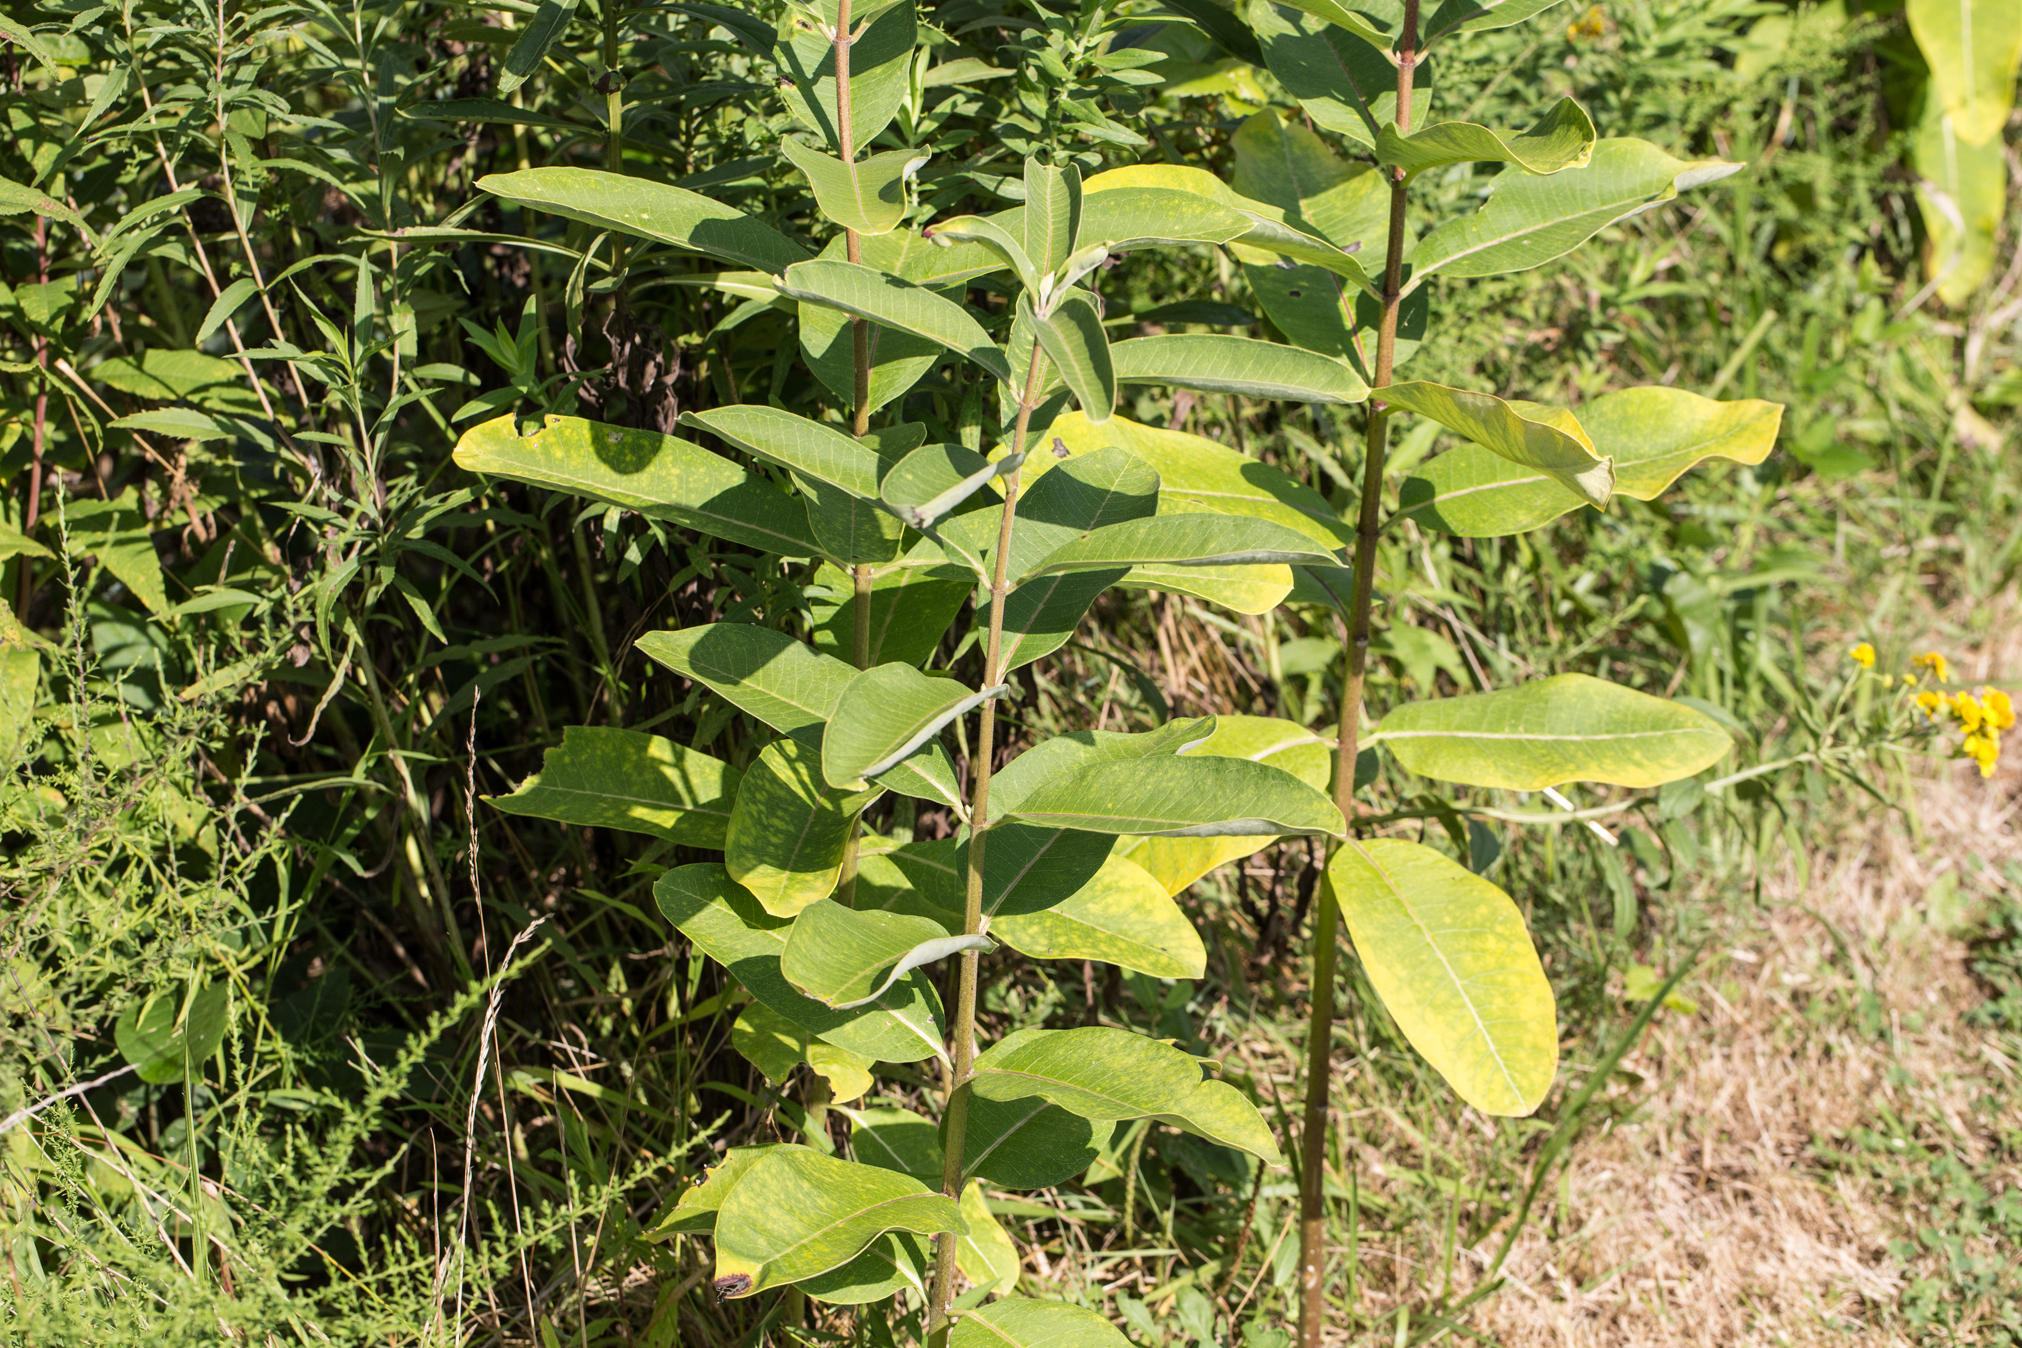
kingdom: Plantae
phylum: Tracheophyta
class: Magnoliopsida
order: Gentianales
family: Apocynaceae
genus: Asclepias
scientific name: Asclepias syriaca
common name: Common milkweed
